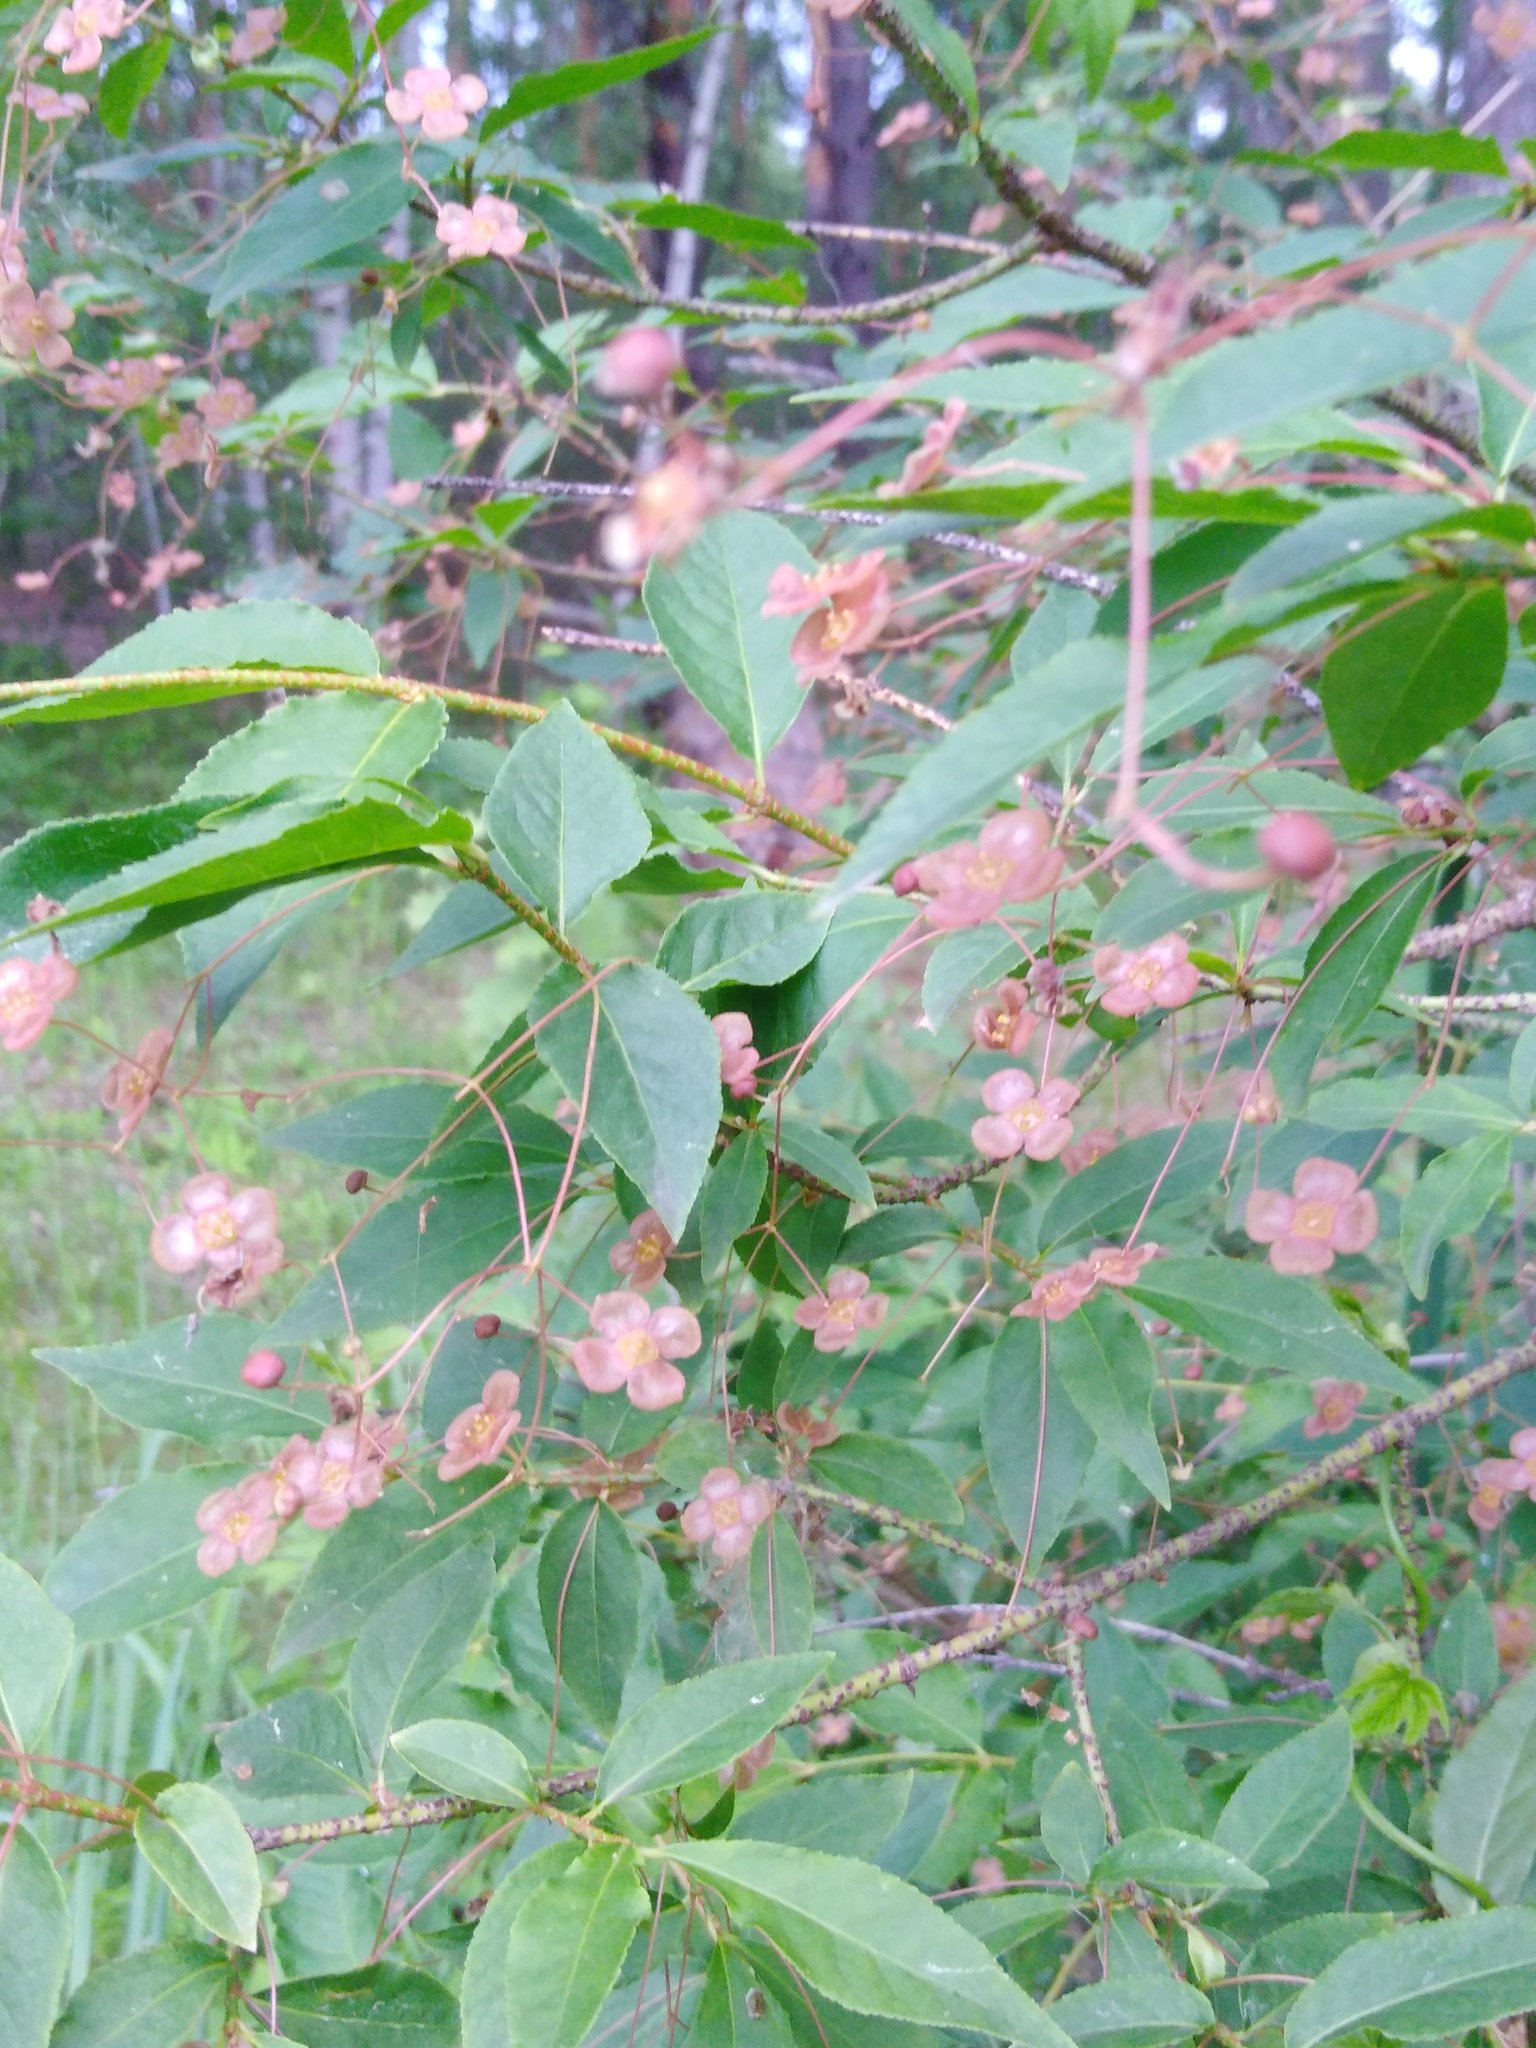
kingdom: Plantae
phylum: Tracheophyta
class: Magnoliopsida
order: Celastrales
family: Celastraceae
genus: Euonymus
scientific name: Euonymus verrucosus
